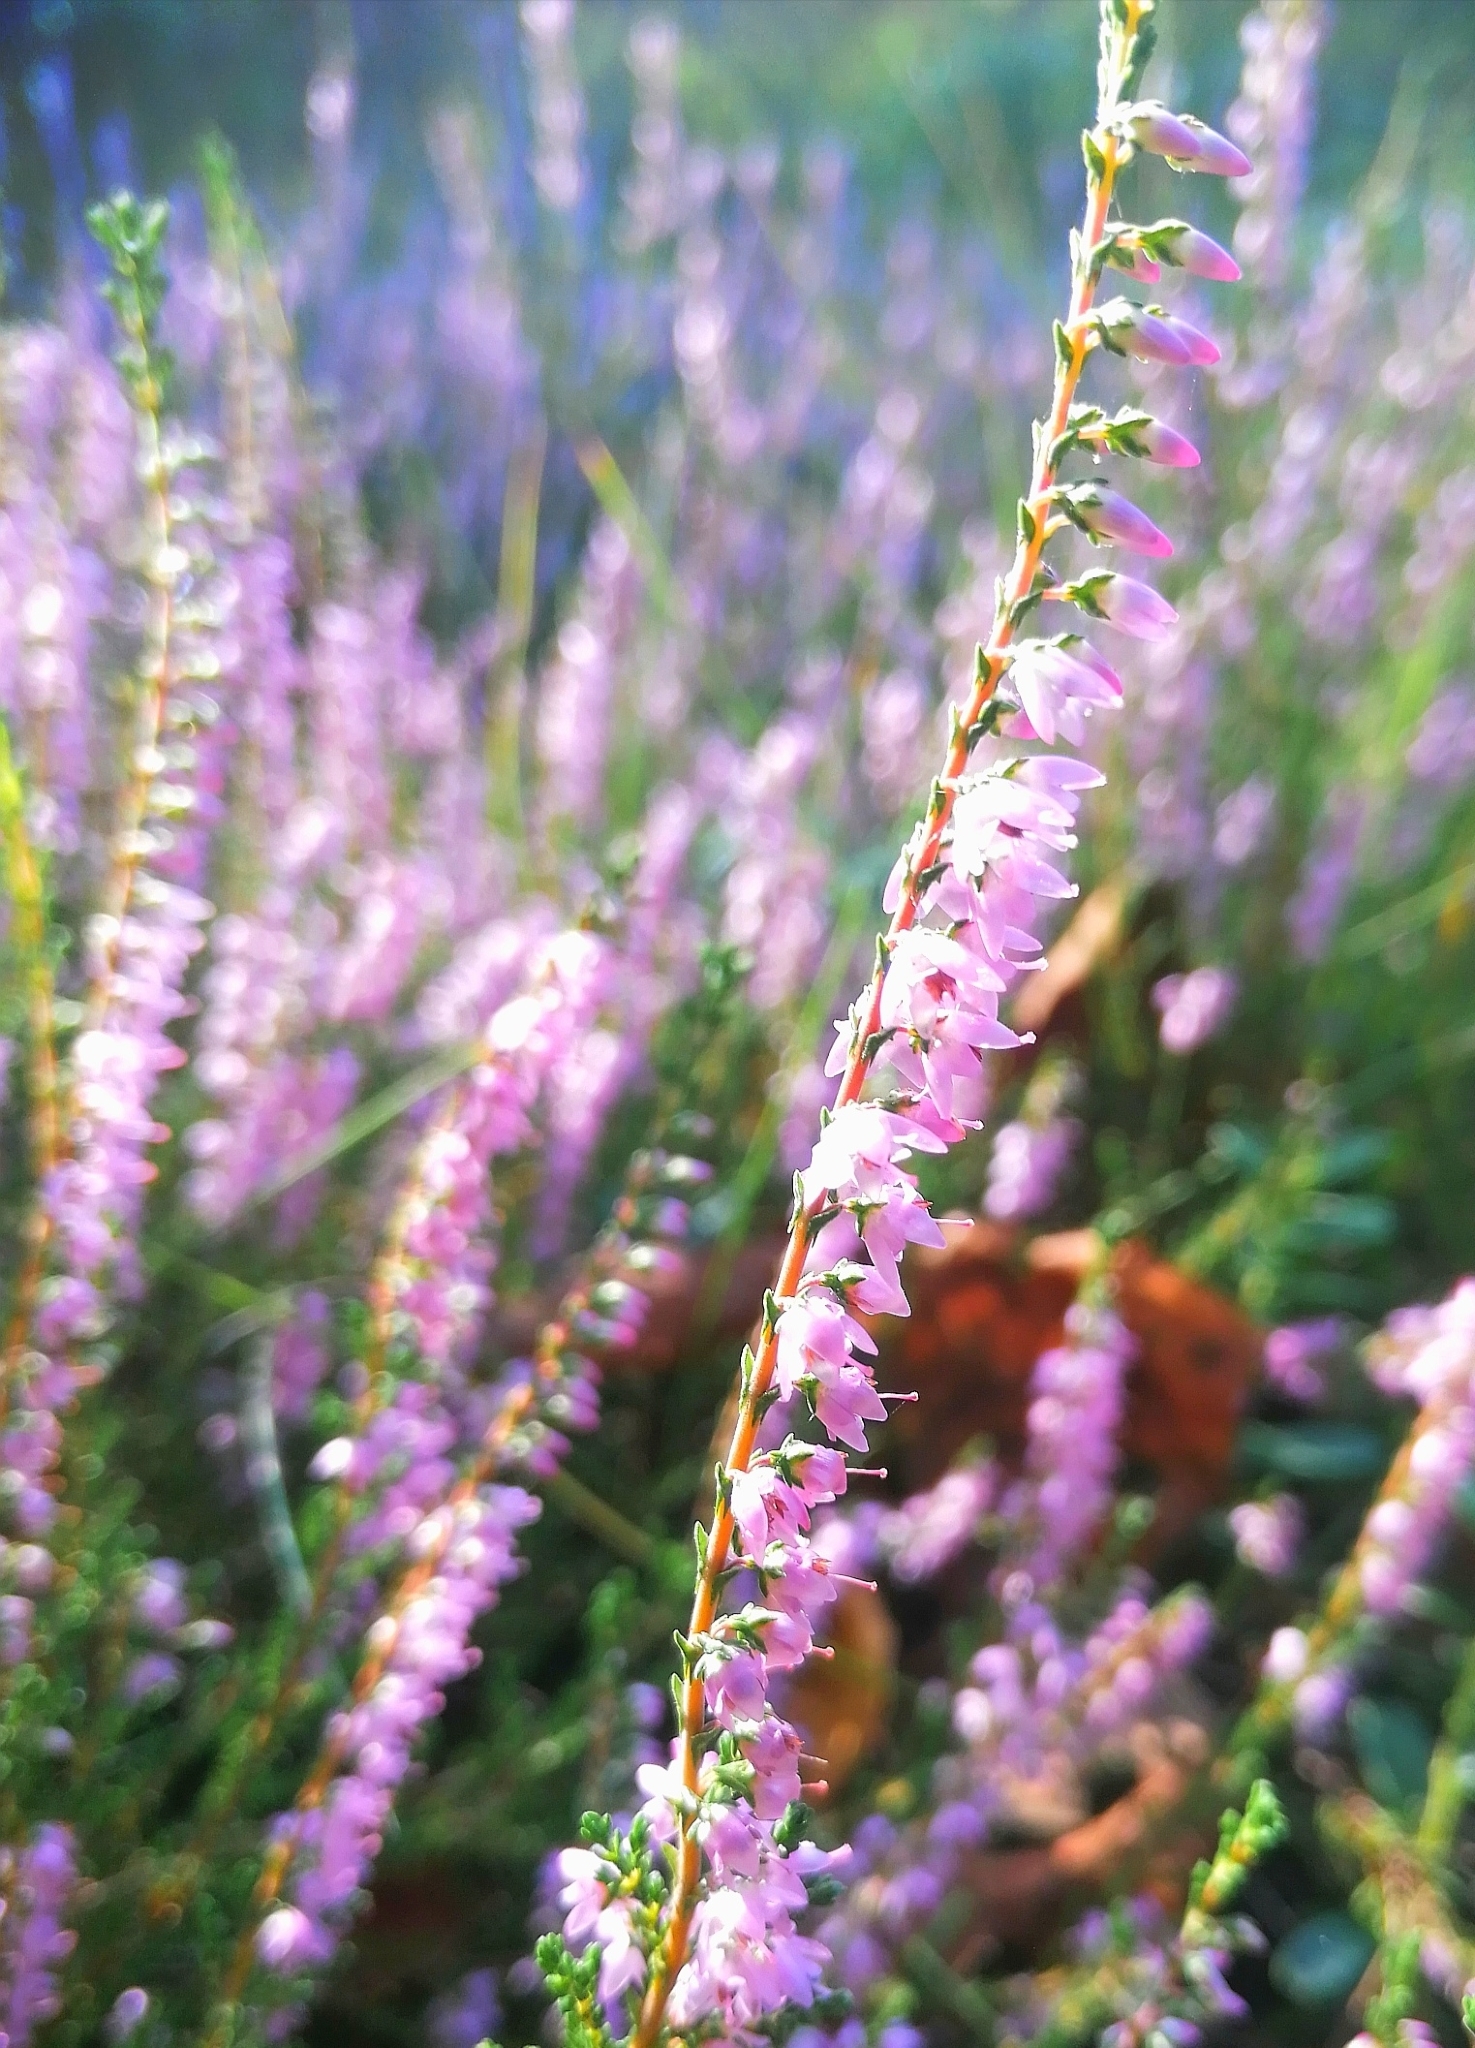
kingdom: Plantae
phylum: Tracheophyta
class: Magnoliopsida
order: Ericales
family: Ericaceae
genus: Calluna
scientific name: Calluna vulgaris
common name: Heather
